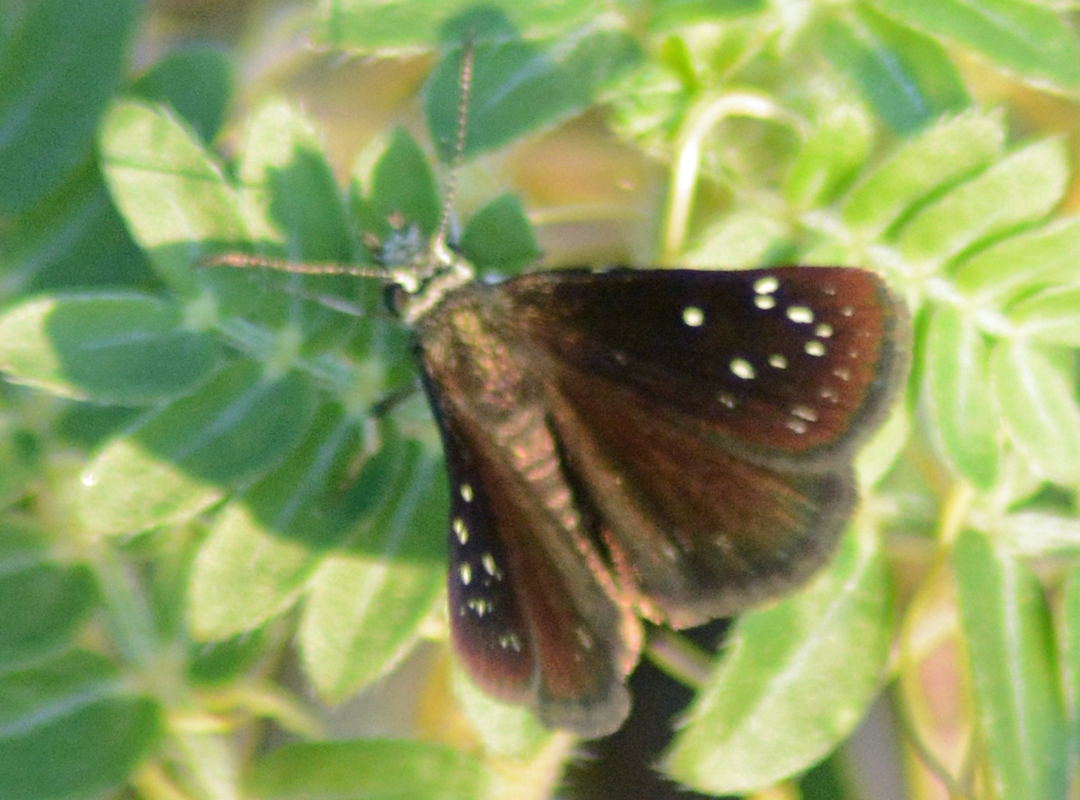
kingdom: Animalia
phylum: Arthropoda
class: Insecta
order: Lepidoptera
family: Hesperiidae
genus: Pholisora
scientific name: Pholisora catullus
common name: Common sootywing
